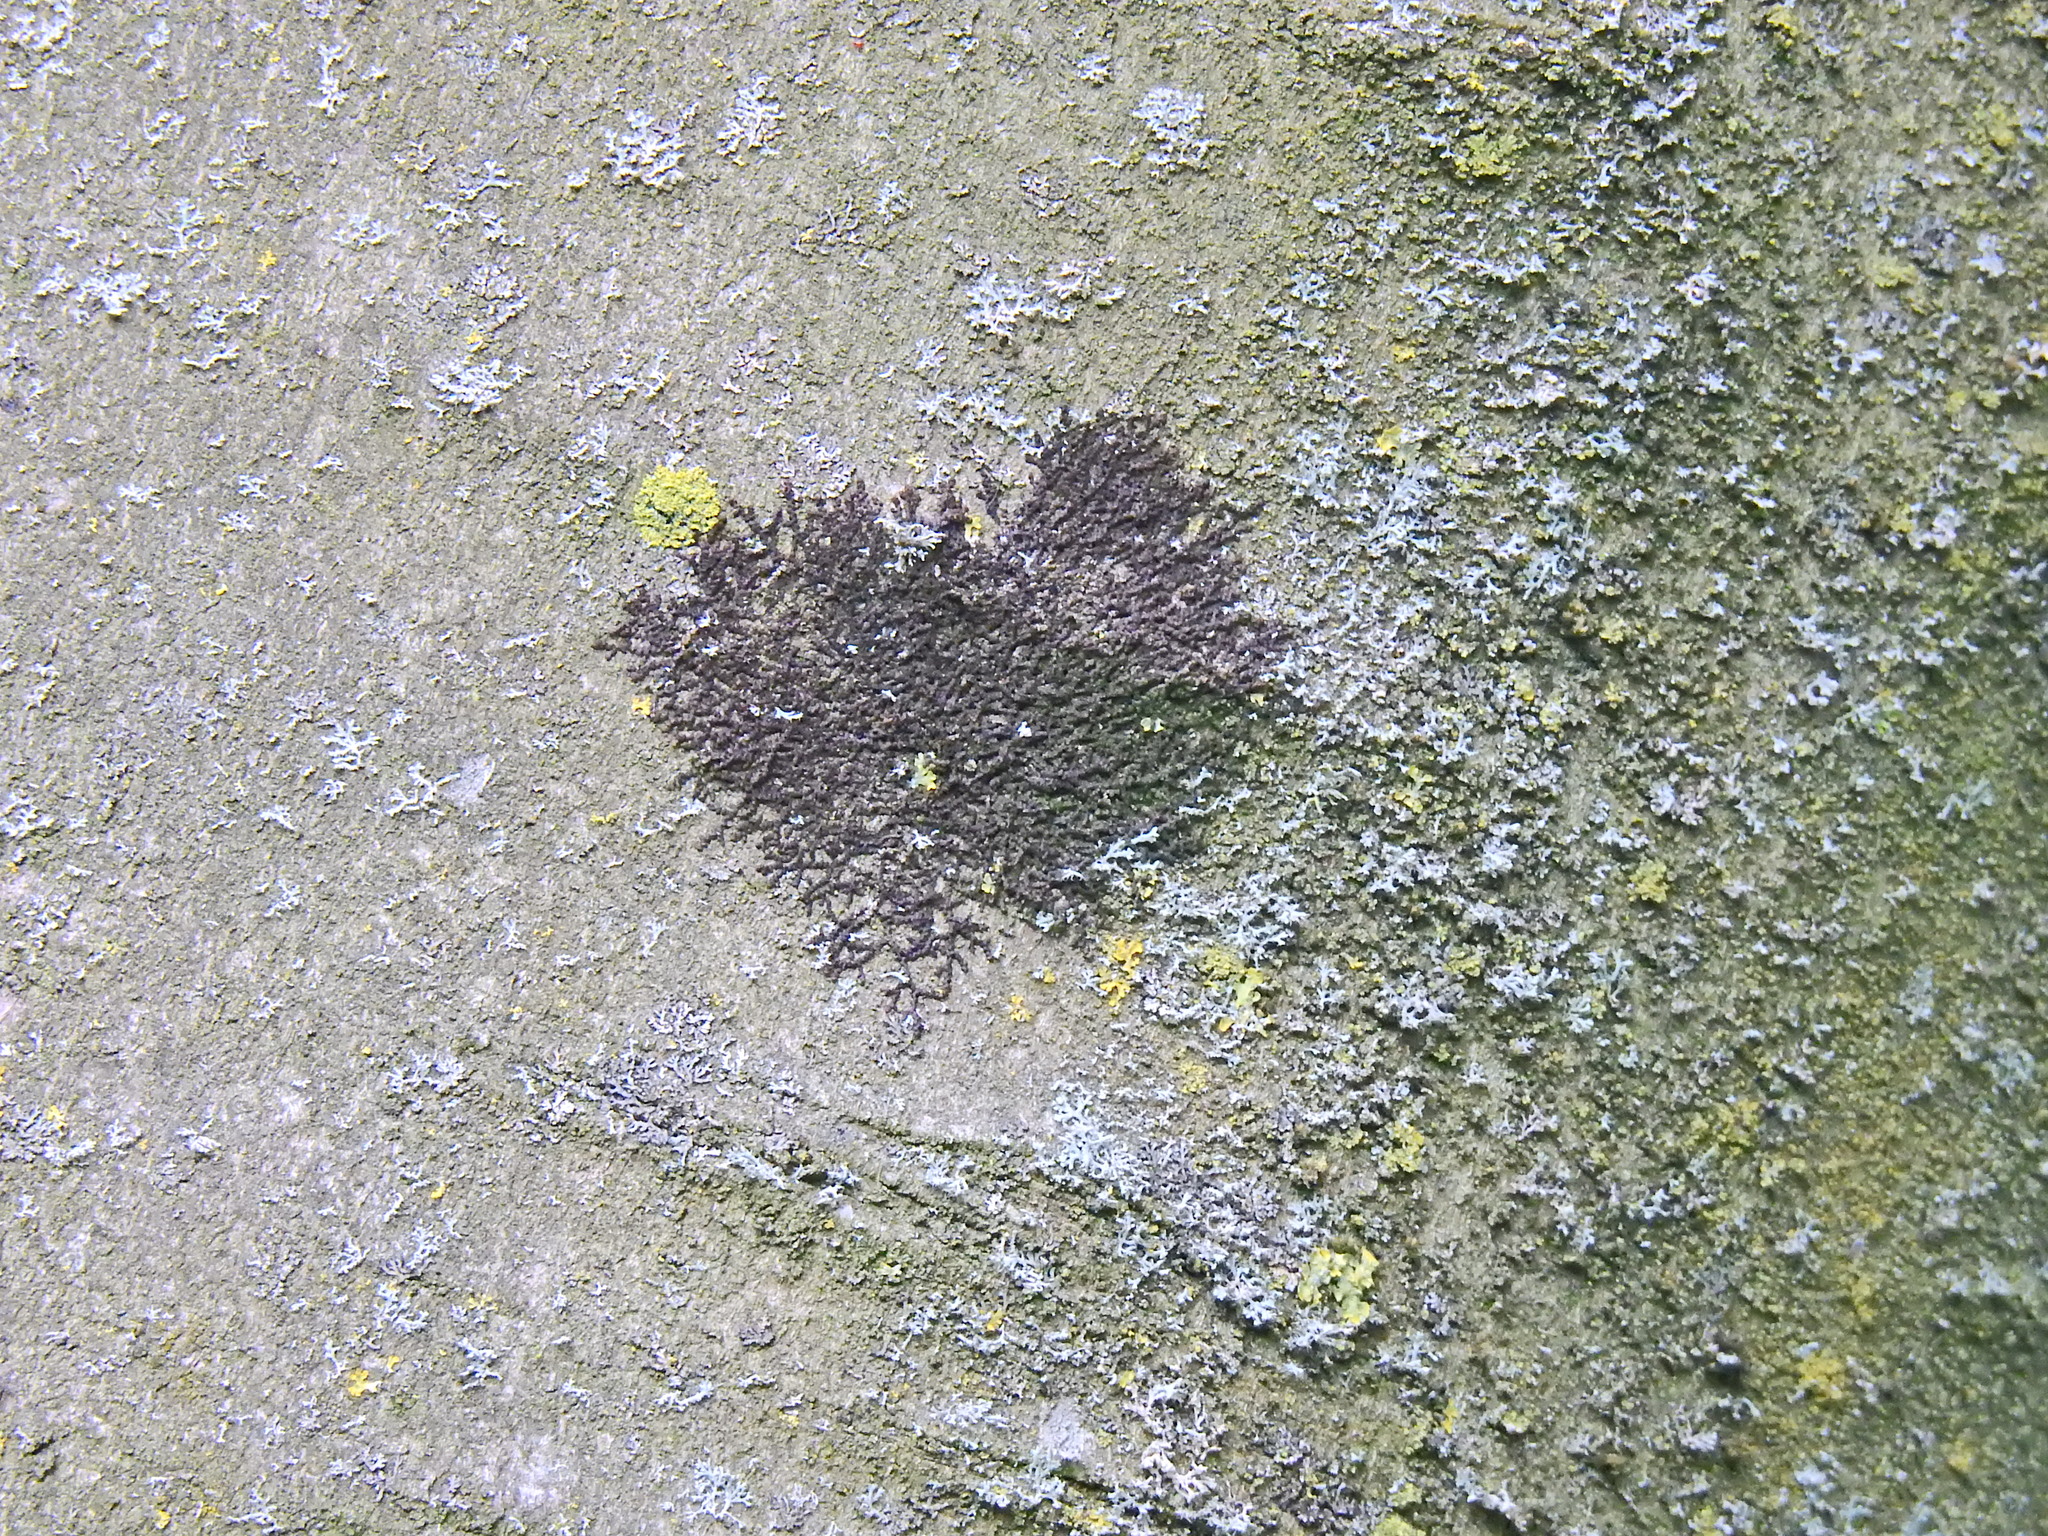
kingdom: Plantae
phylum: Marchantiophyta
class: Jungermanniopsida
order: Porellales
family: Frullaniaceae
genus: Frullania
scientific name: Frullania dilatata
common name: Dilated scalewort
